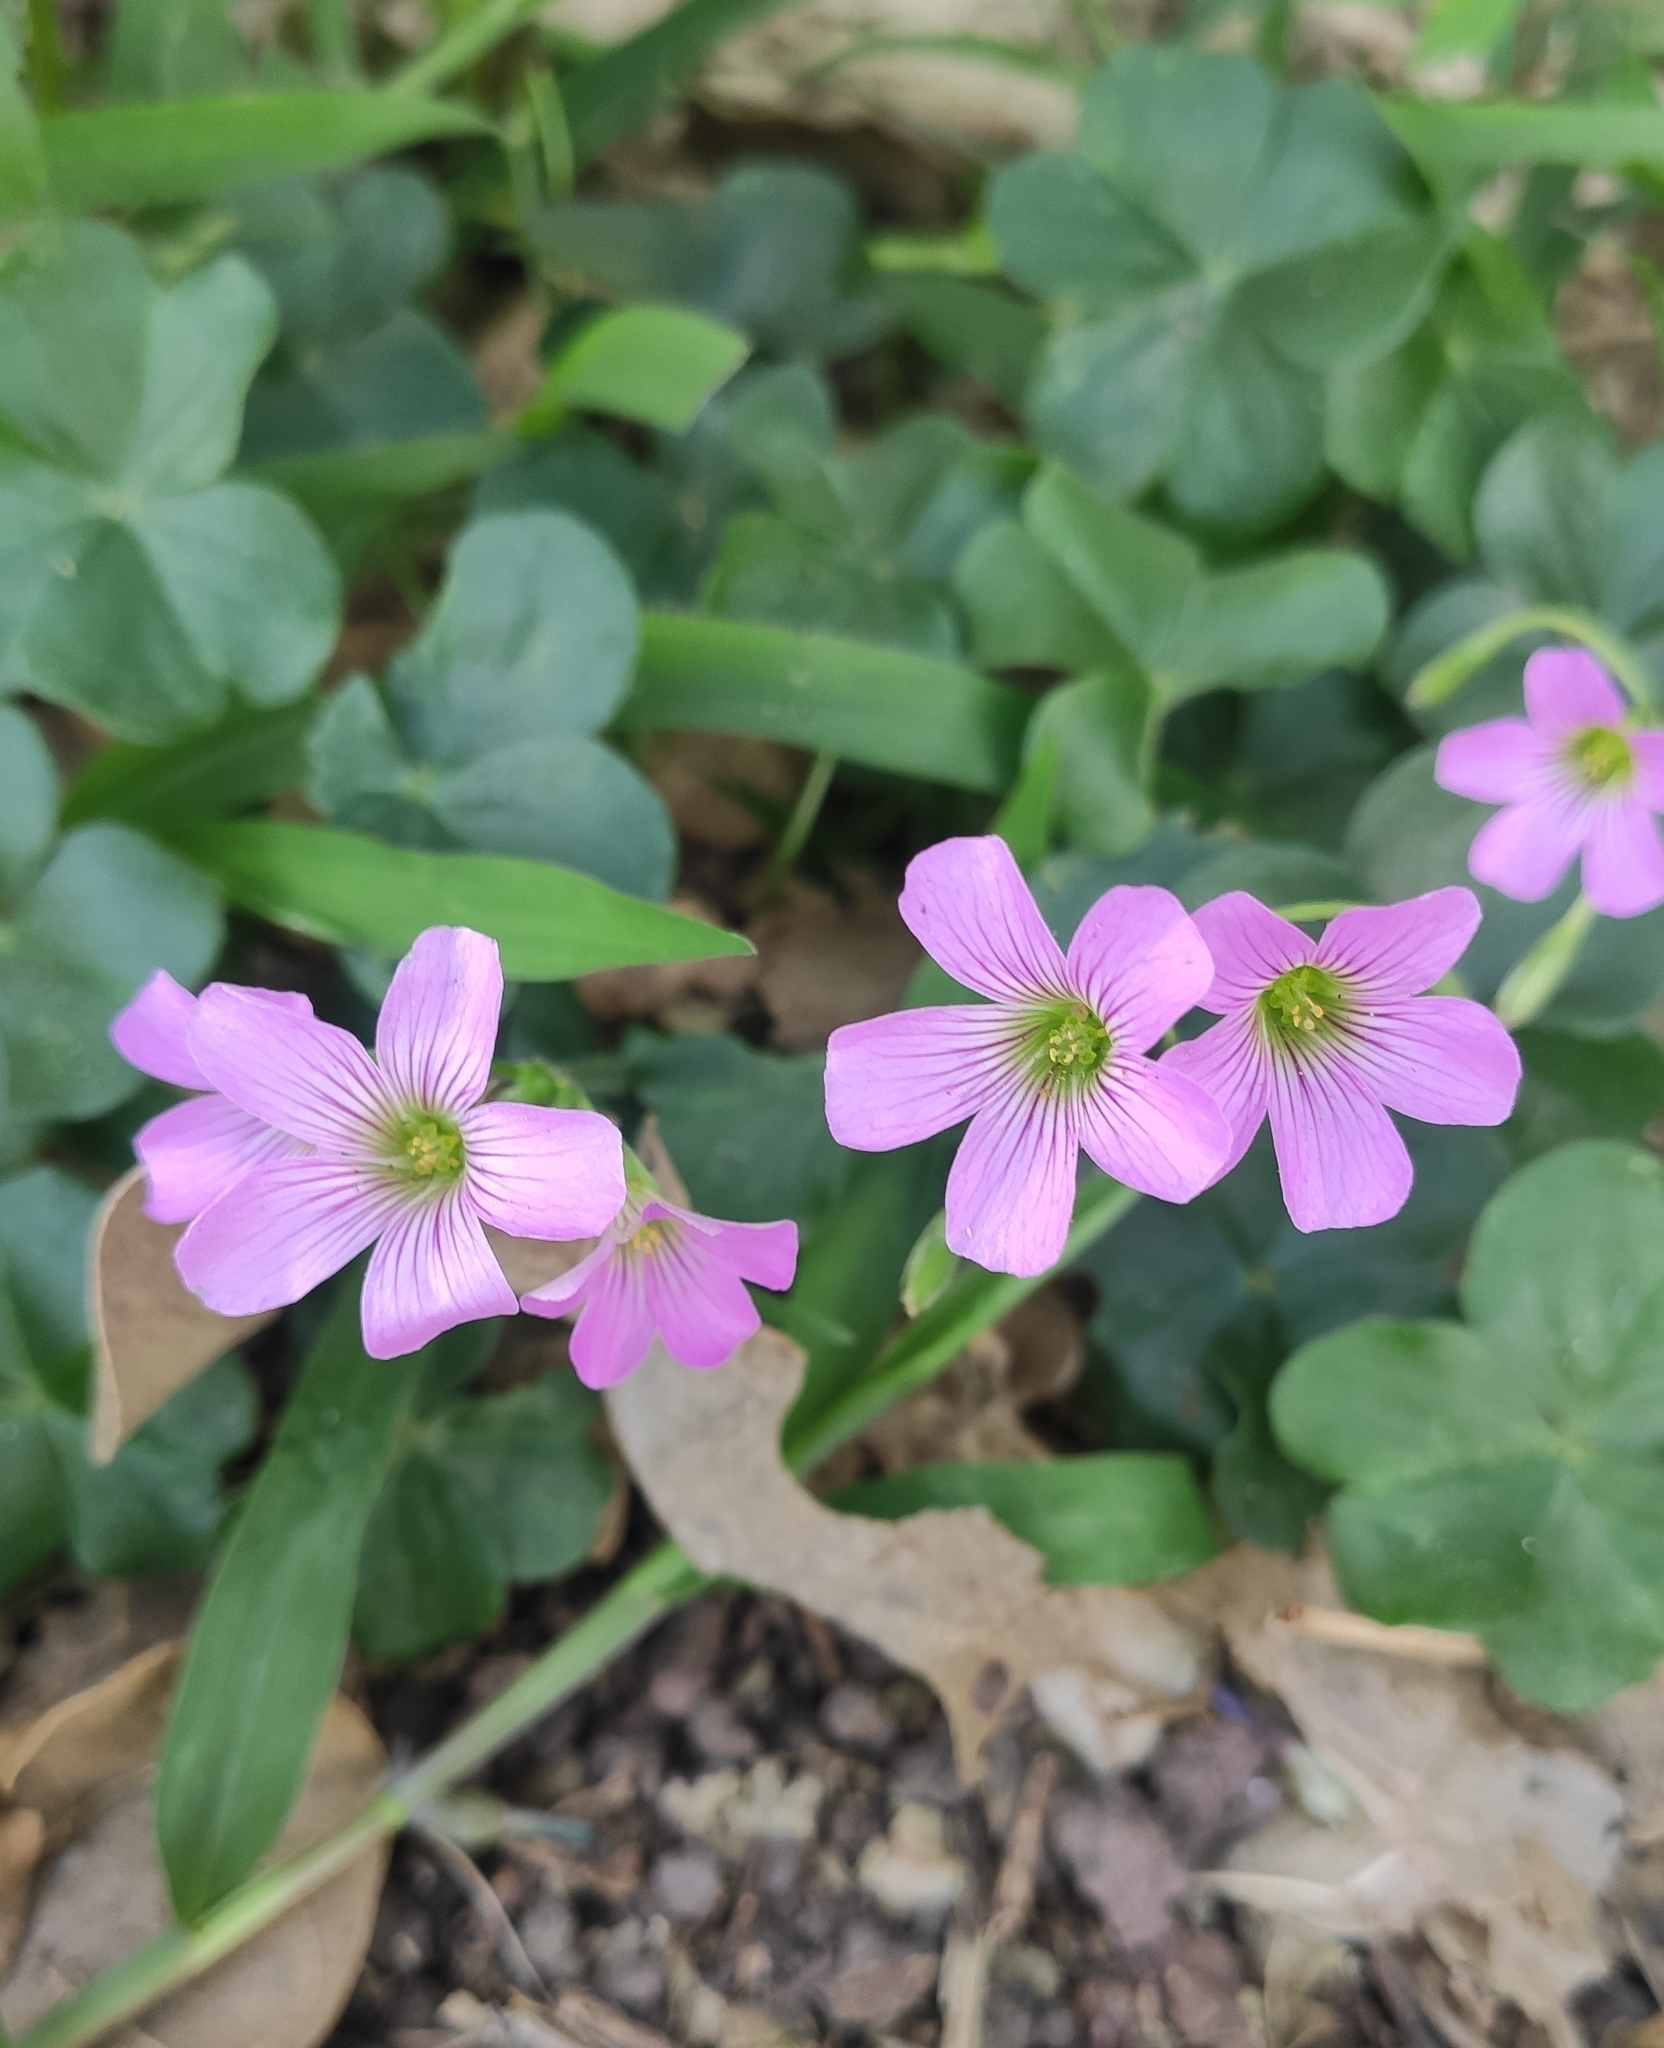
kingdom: Plantae
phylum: Tracheophyta
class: Magnoliopsida
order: Oxalidales
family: Oxalidaceae
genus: Oxalis
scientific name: Oxalis debilis
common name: Large-flowered pink-sorrel
